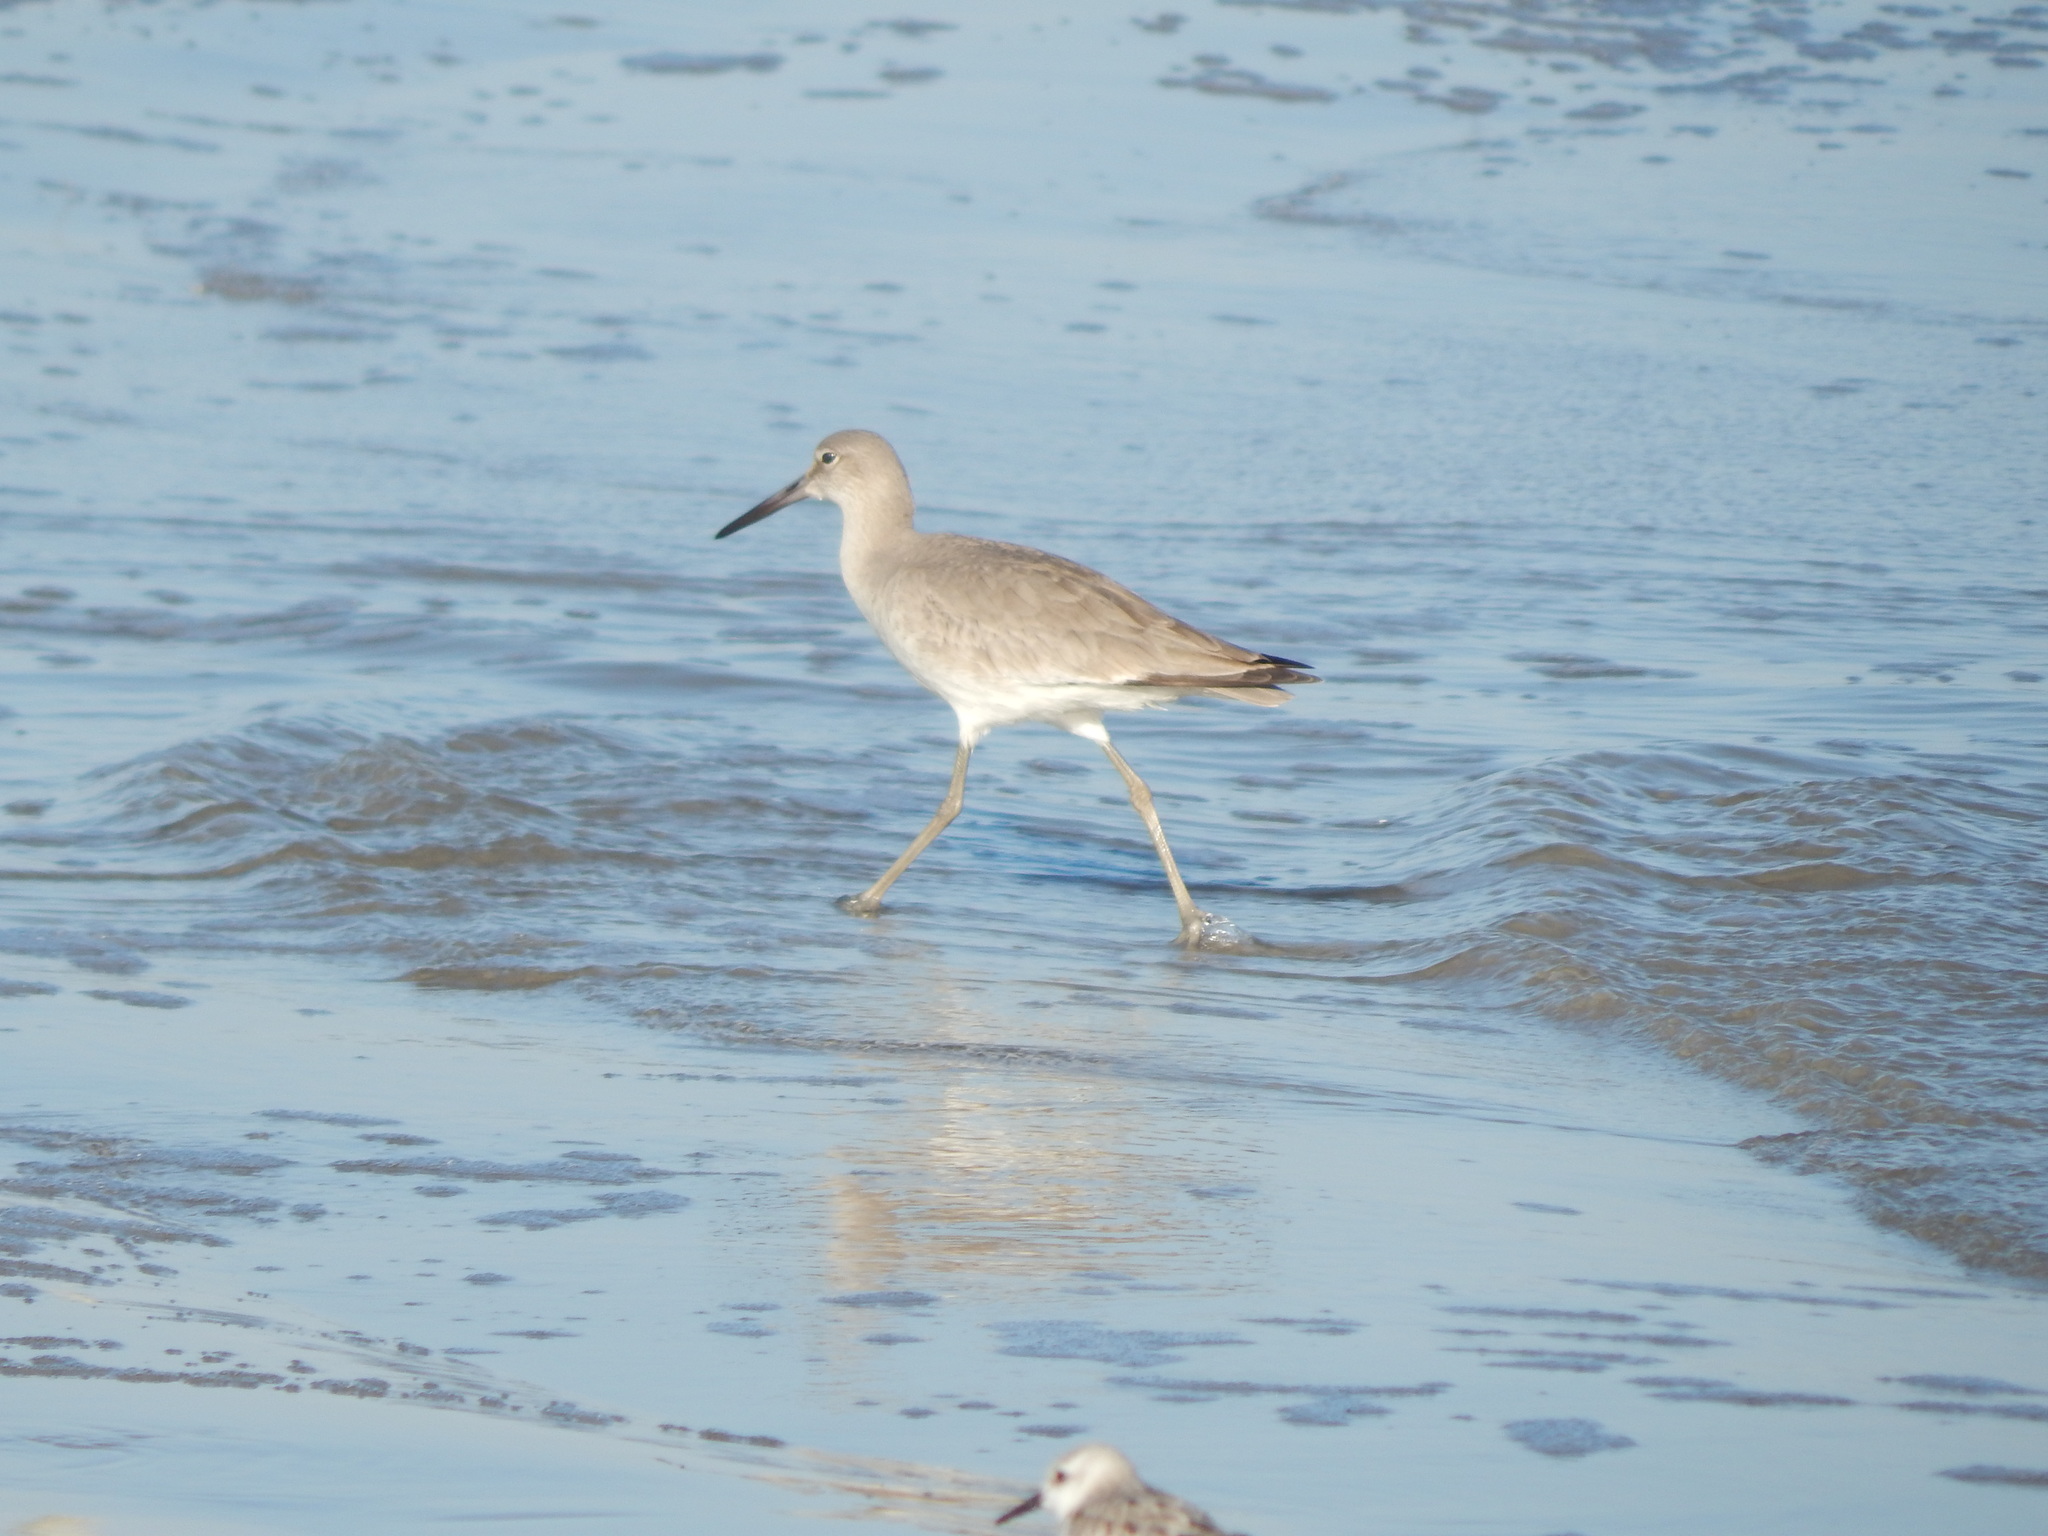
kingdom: Animalia
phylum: Chordata
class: Aves
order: Charadriiformes
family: Scolopacidae
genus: Tringa
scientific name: Tringa semipalmata
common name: Willet
